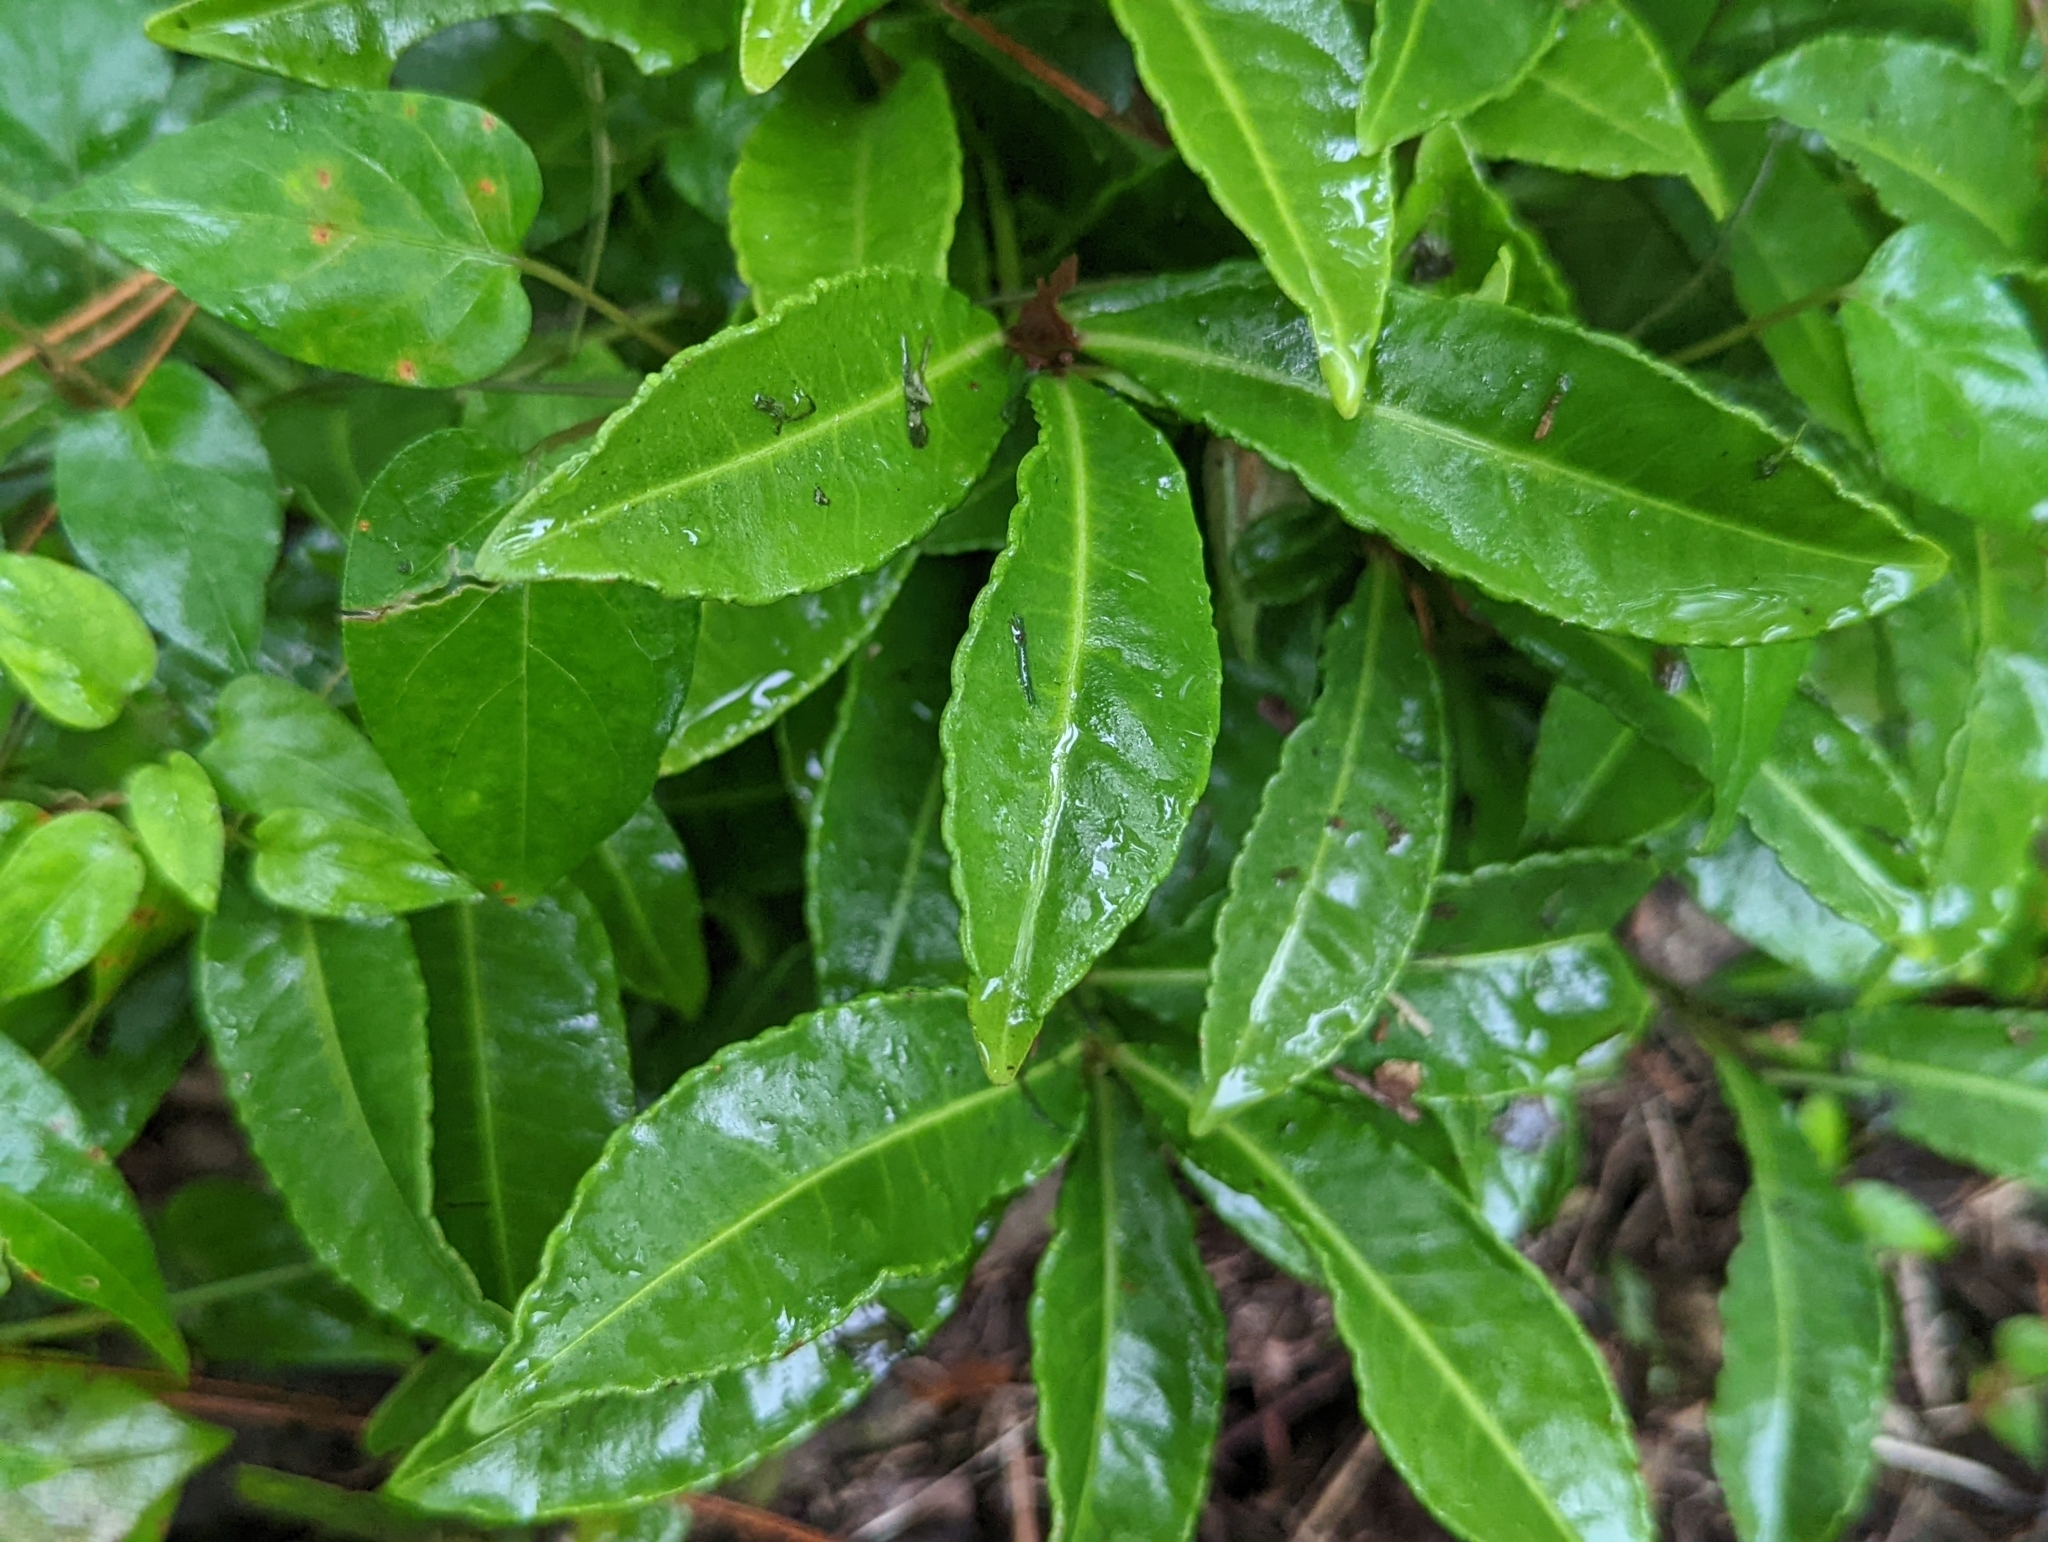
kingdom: Plantae
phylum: Tracheophyta
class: Magnoliopsida
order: Ericales
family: Primulaceae
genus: Ardisia
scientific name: Ardisia crenata
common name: Hen's eyes
